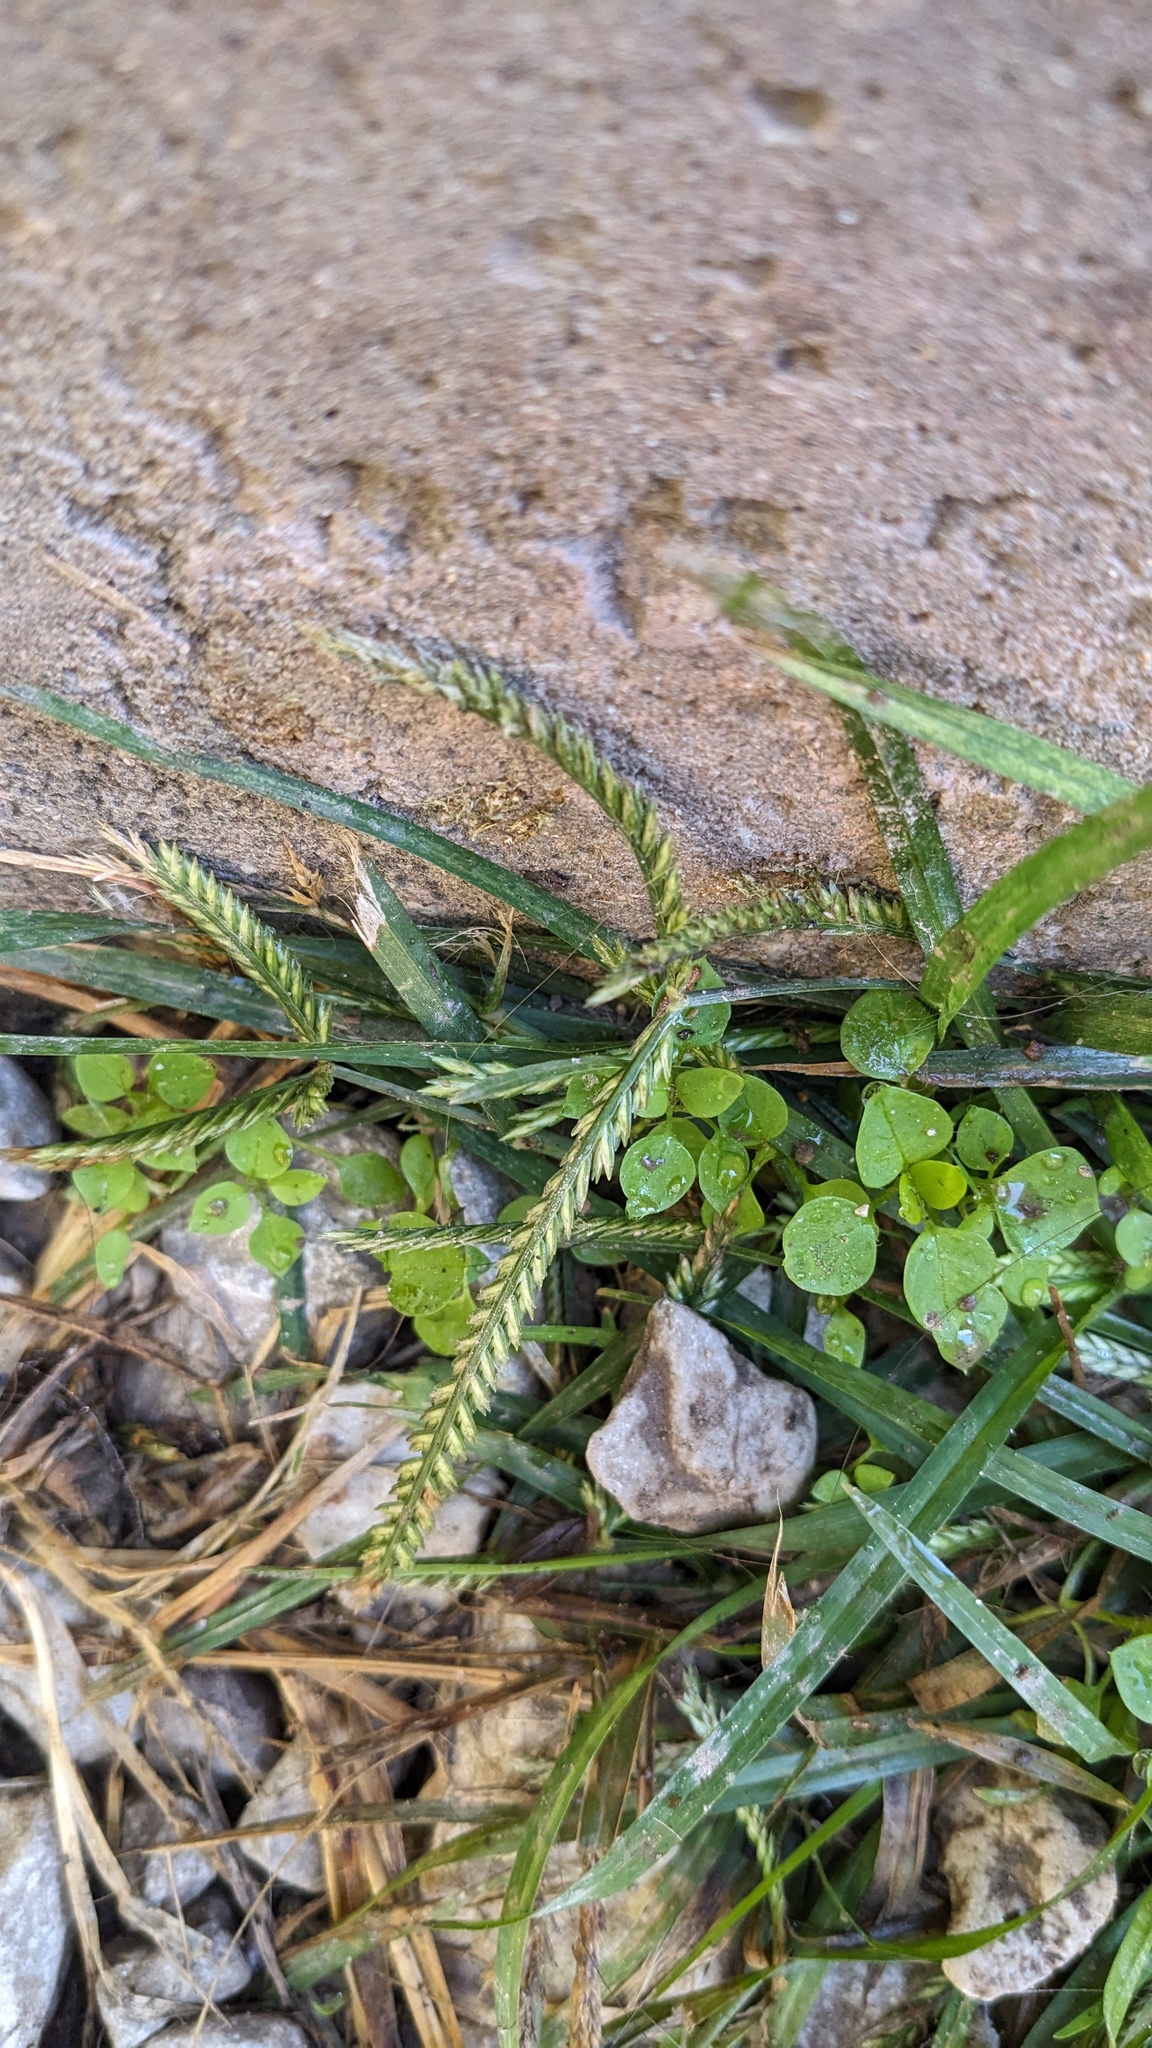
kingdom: Plantae
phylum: Tracheophyta
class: Liliopsida
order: Poales
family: Poaceae
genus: Eleusine
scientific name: Eleusine indica
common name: Yard-grass
